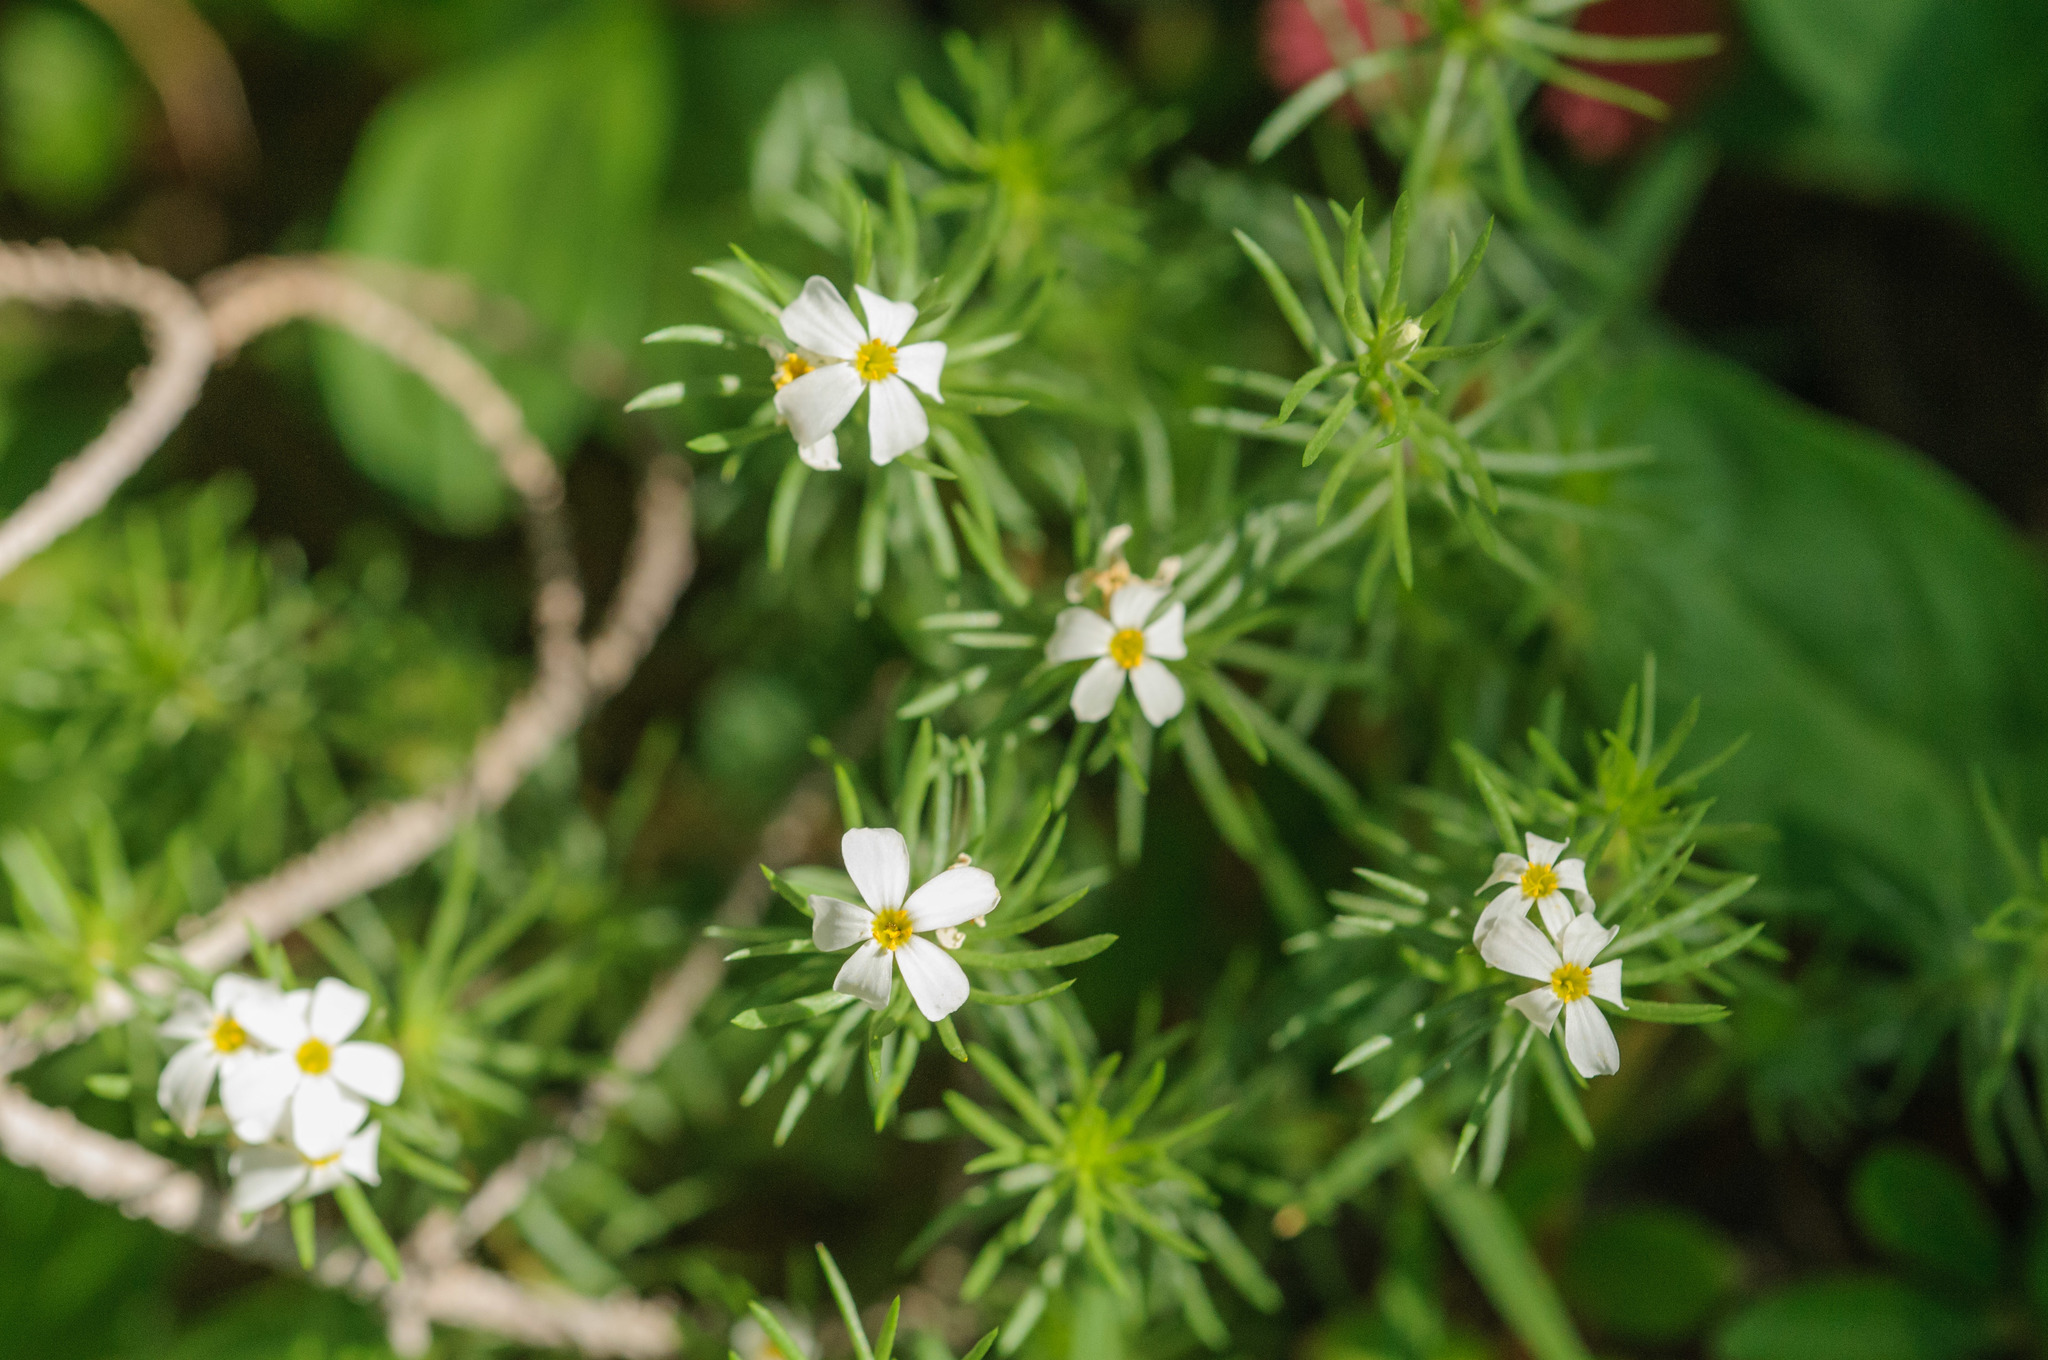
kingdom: Plantae
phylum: Tracheophyta
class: Magnoliopsida
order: Ericales
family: Polemoniaceae
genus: Leptosiphon
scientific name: Leptosiphon nuttallii
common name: Nuttall's linanthus
